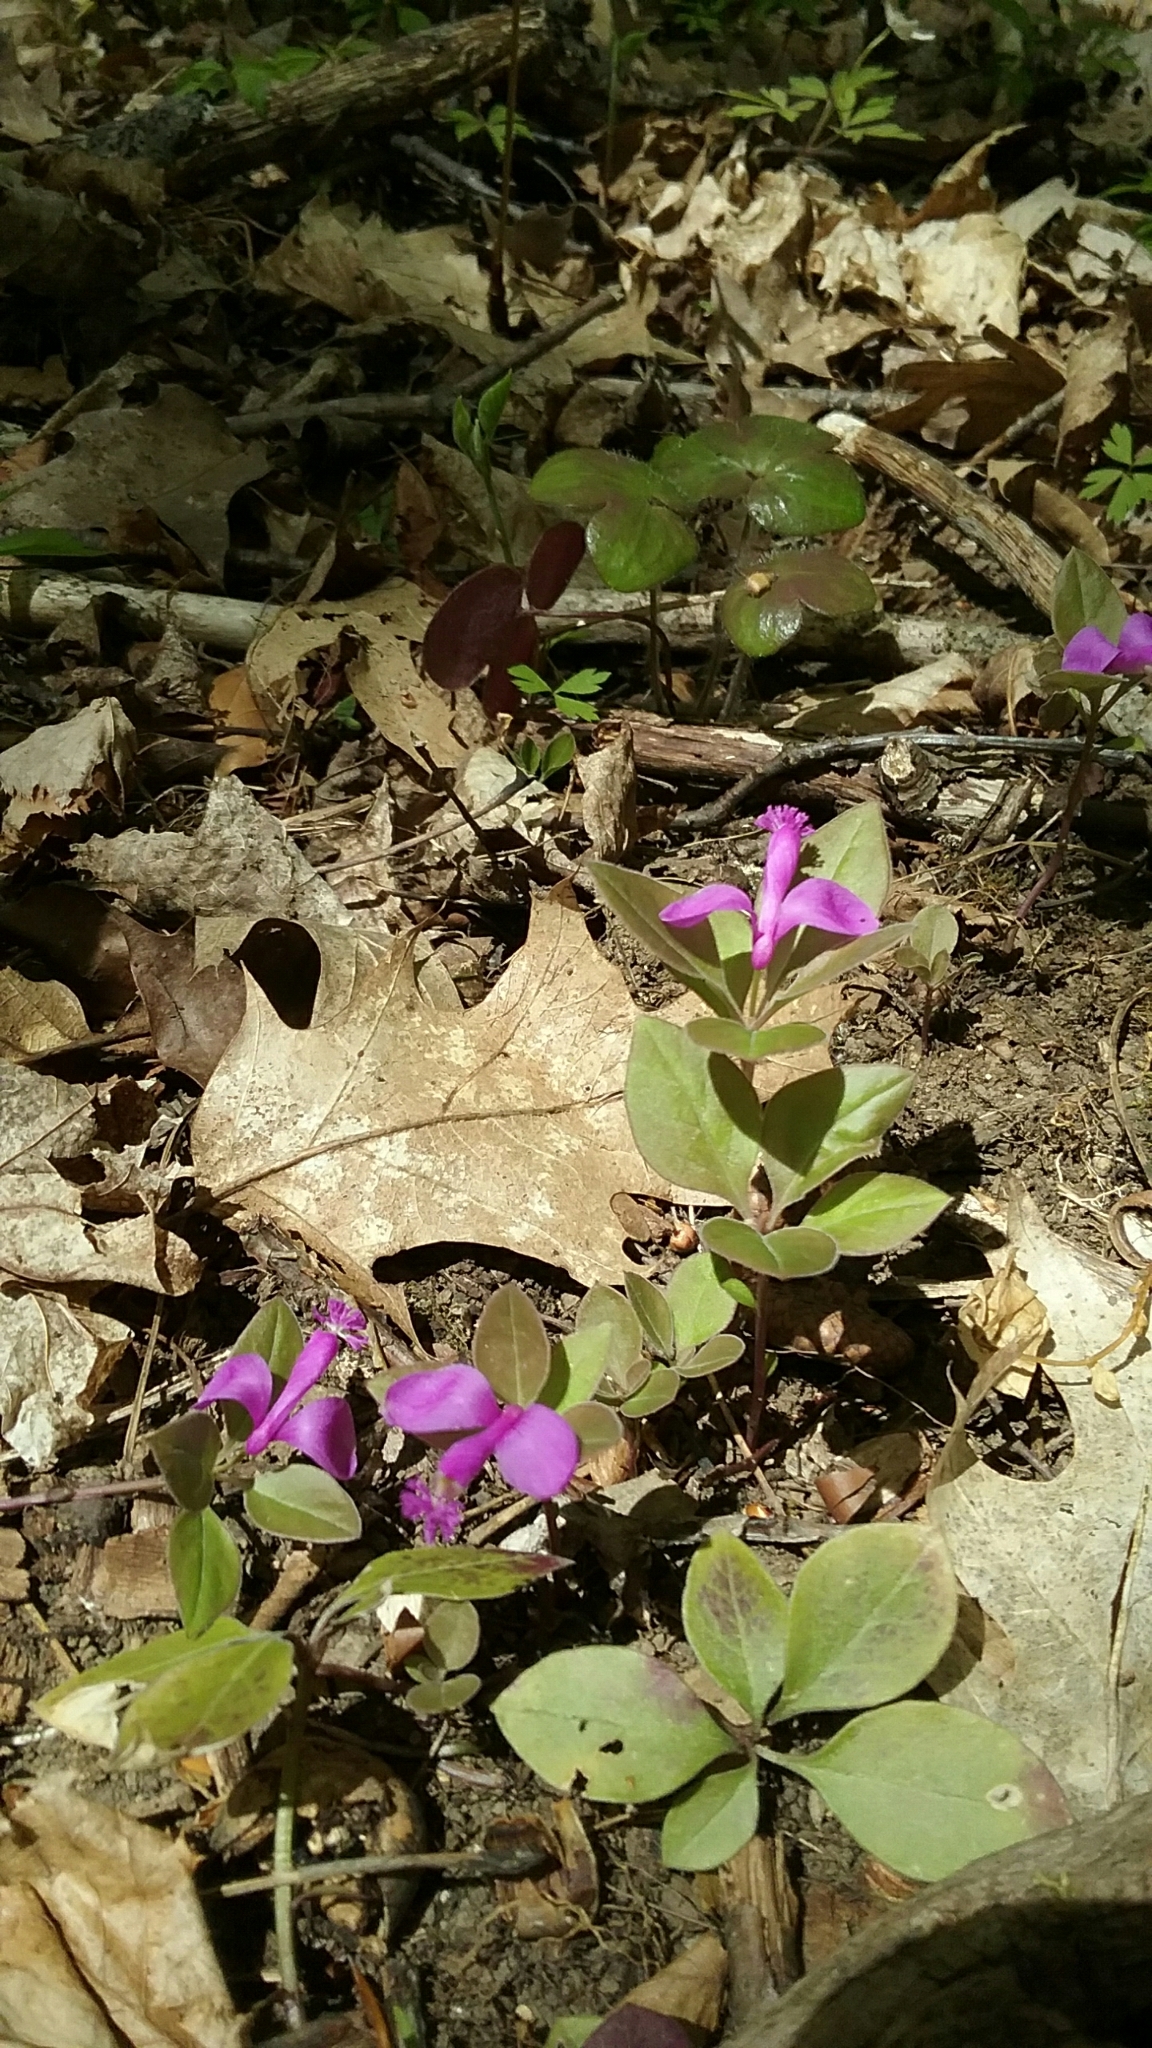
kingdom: Plantae
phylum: Tracheophyta
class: Magnoliopsida
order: Fabales
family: Polygalaceae
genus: Polygaloides
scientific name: Polygaloides paucifolia
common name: Bird-on-the-wing
